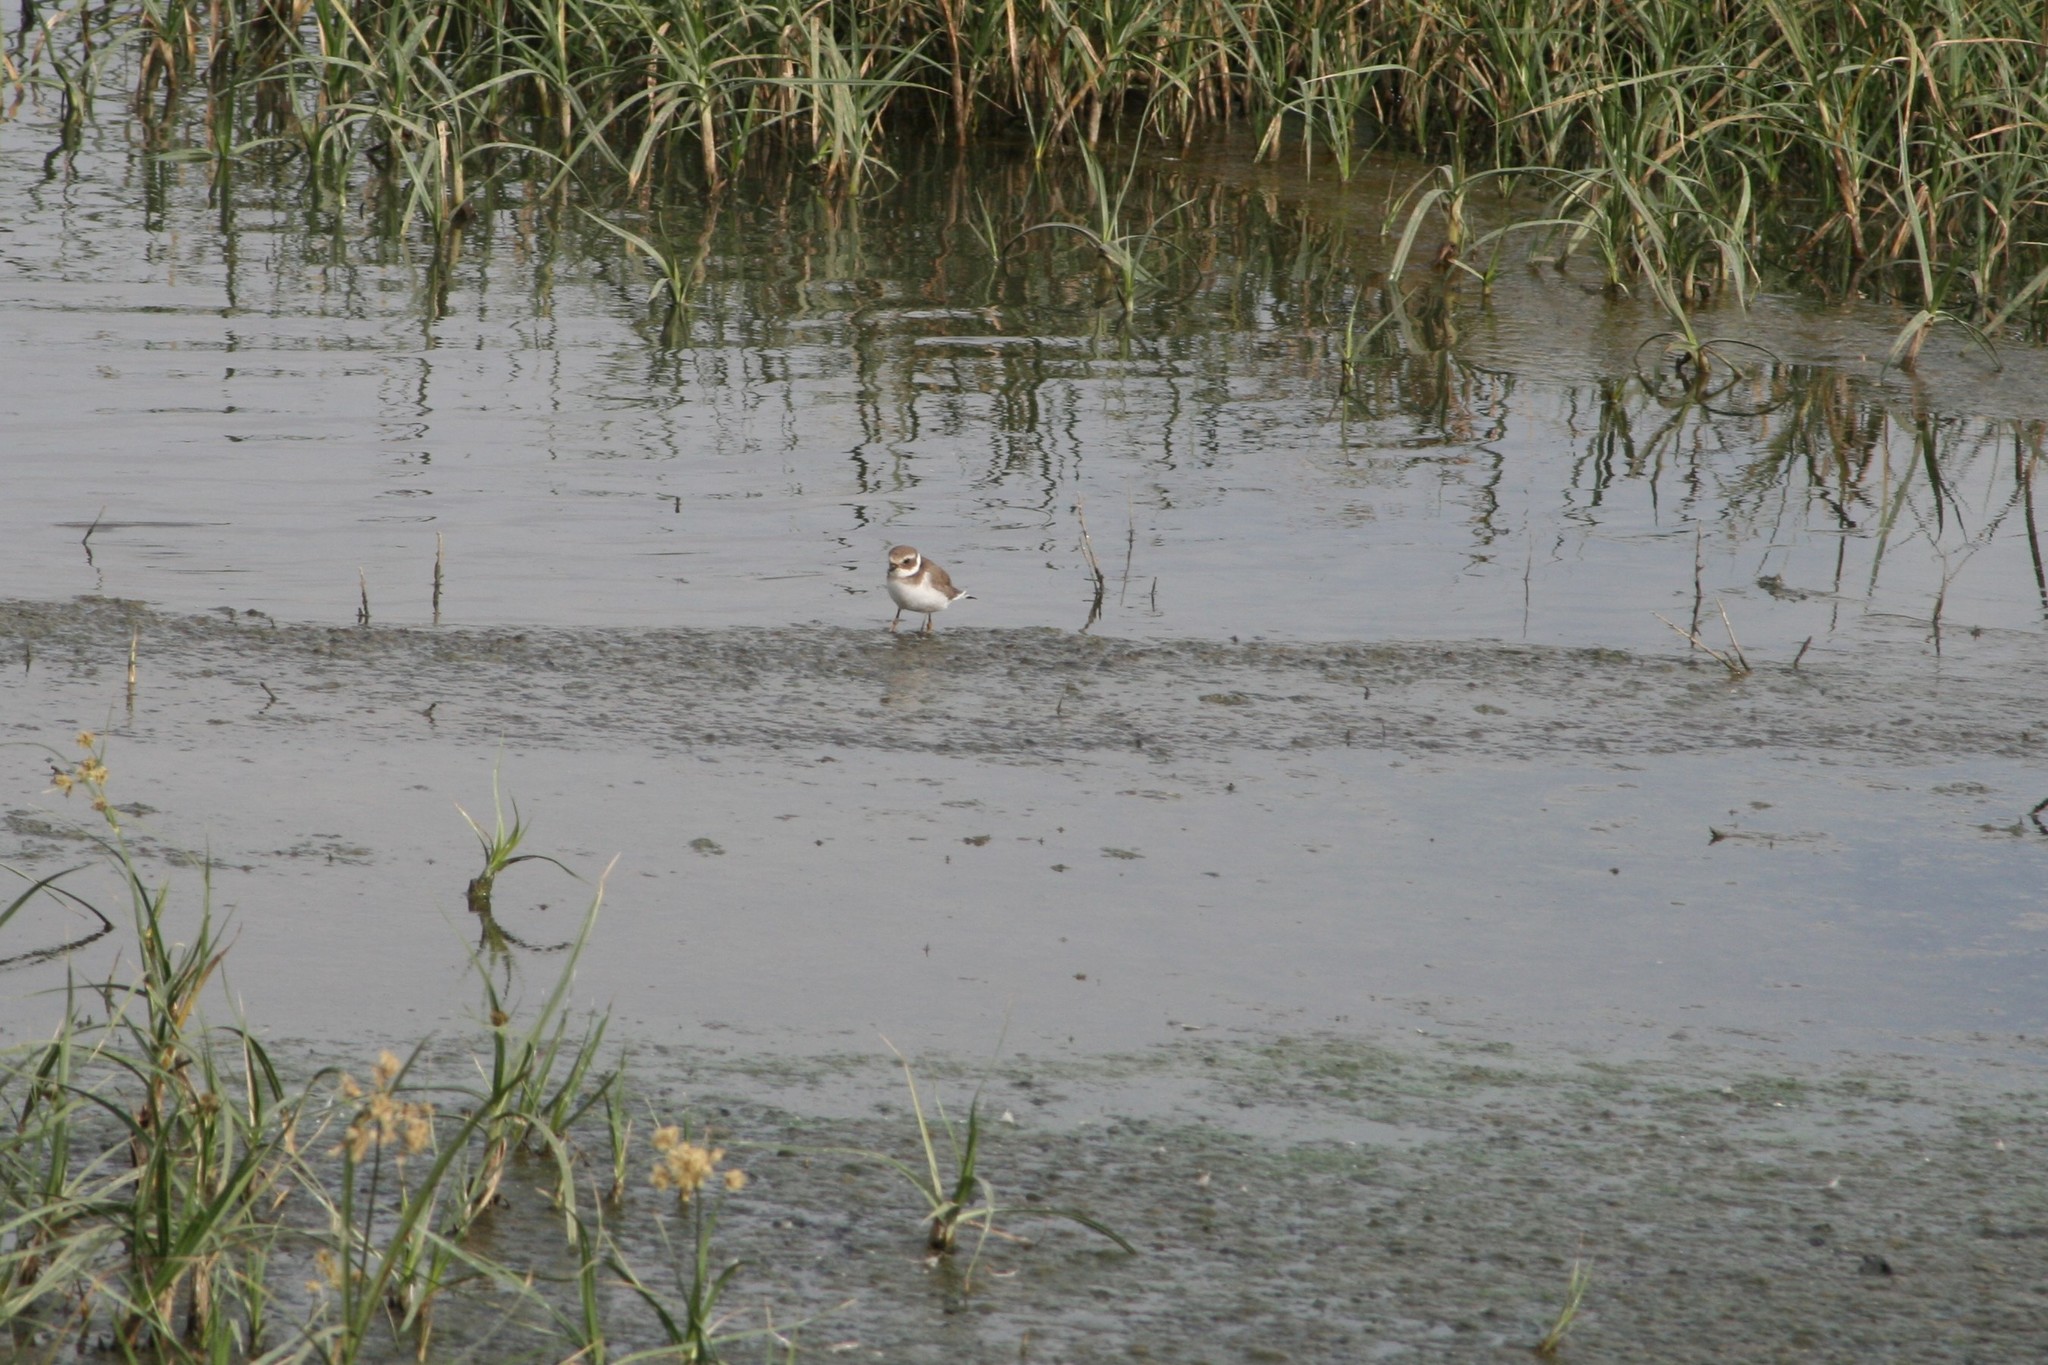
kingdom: Animalia
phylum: Chordata
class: Aves
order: Charadriiformes
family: Charadriidae
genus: Charadrius
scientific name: Charadrius hiaticula
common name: Common ringed plover
